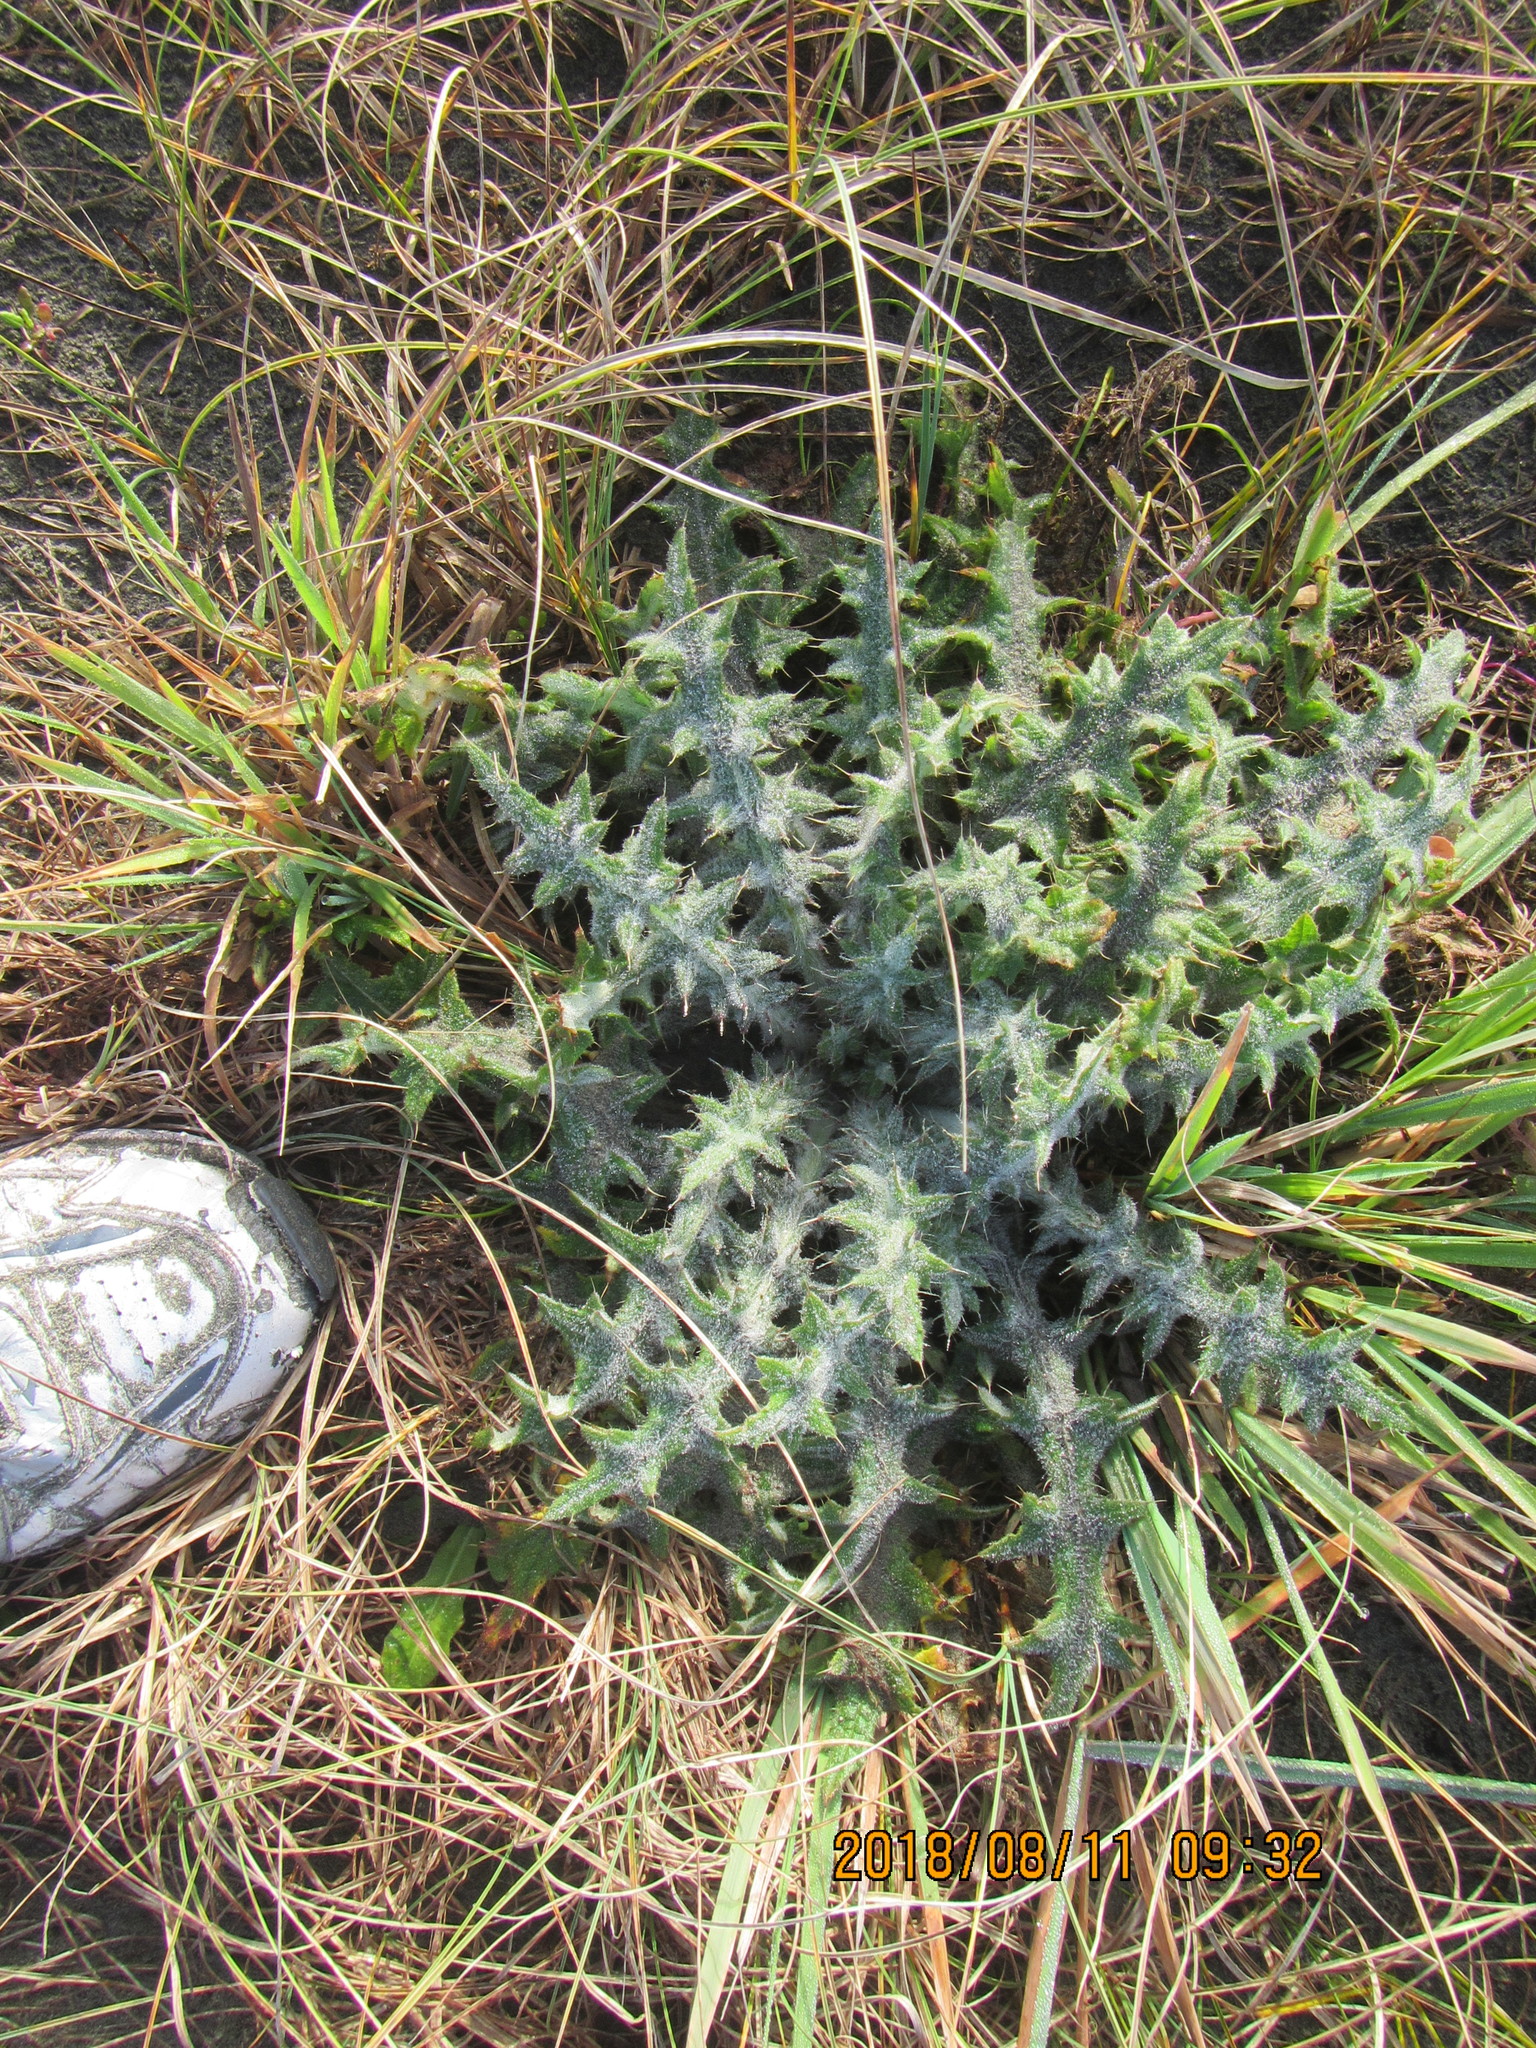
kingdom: Plantae
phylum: Tracheophyta
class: Magnoliopsida
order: Asterales
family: Asteraceae
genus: Cirsium
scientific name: Cirsium vulgare
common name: Bull thistle
